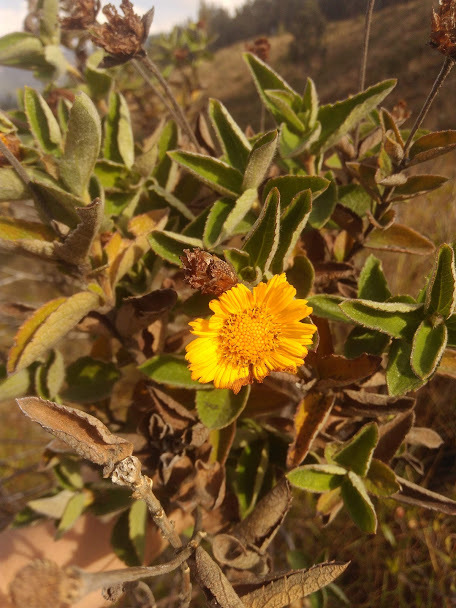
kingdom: Plantae
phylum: Tracheophyta
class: Magnoliopsida
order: Asterales
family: Asteraceae
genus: Calea
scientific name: Calea peruviana
